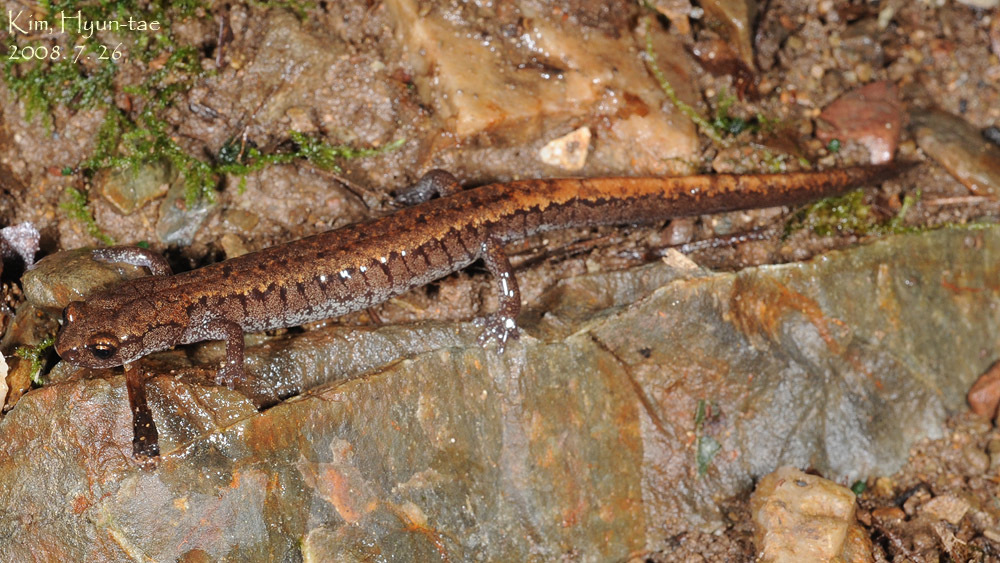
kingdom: Animalia
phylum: Chordata
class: Amphibia
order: Caudata
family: Plethodontidae
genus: Karsenia
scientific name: Karsenia koreana
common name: Korean crevice salamander
